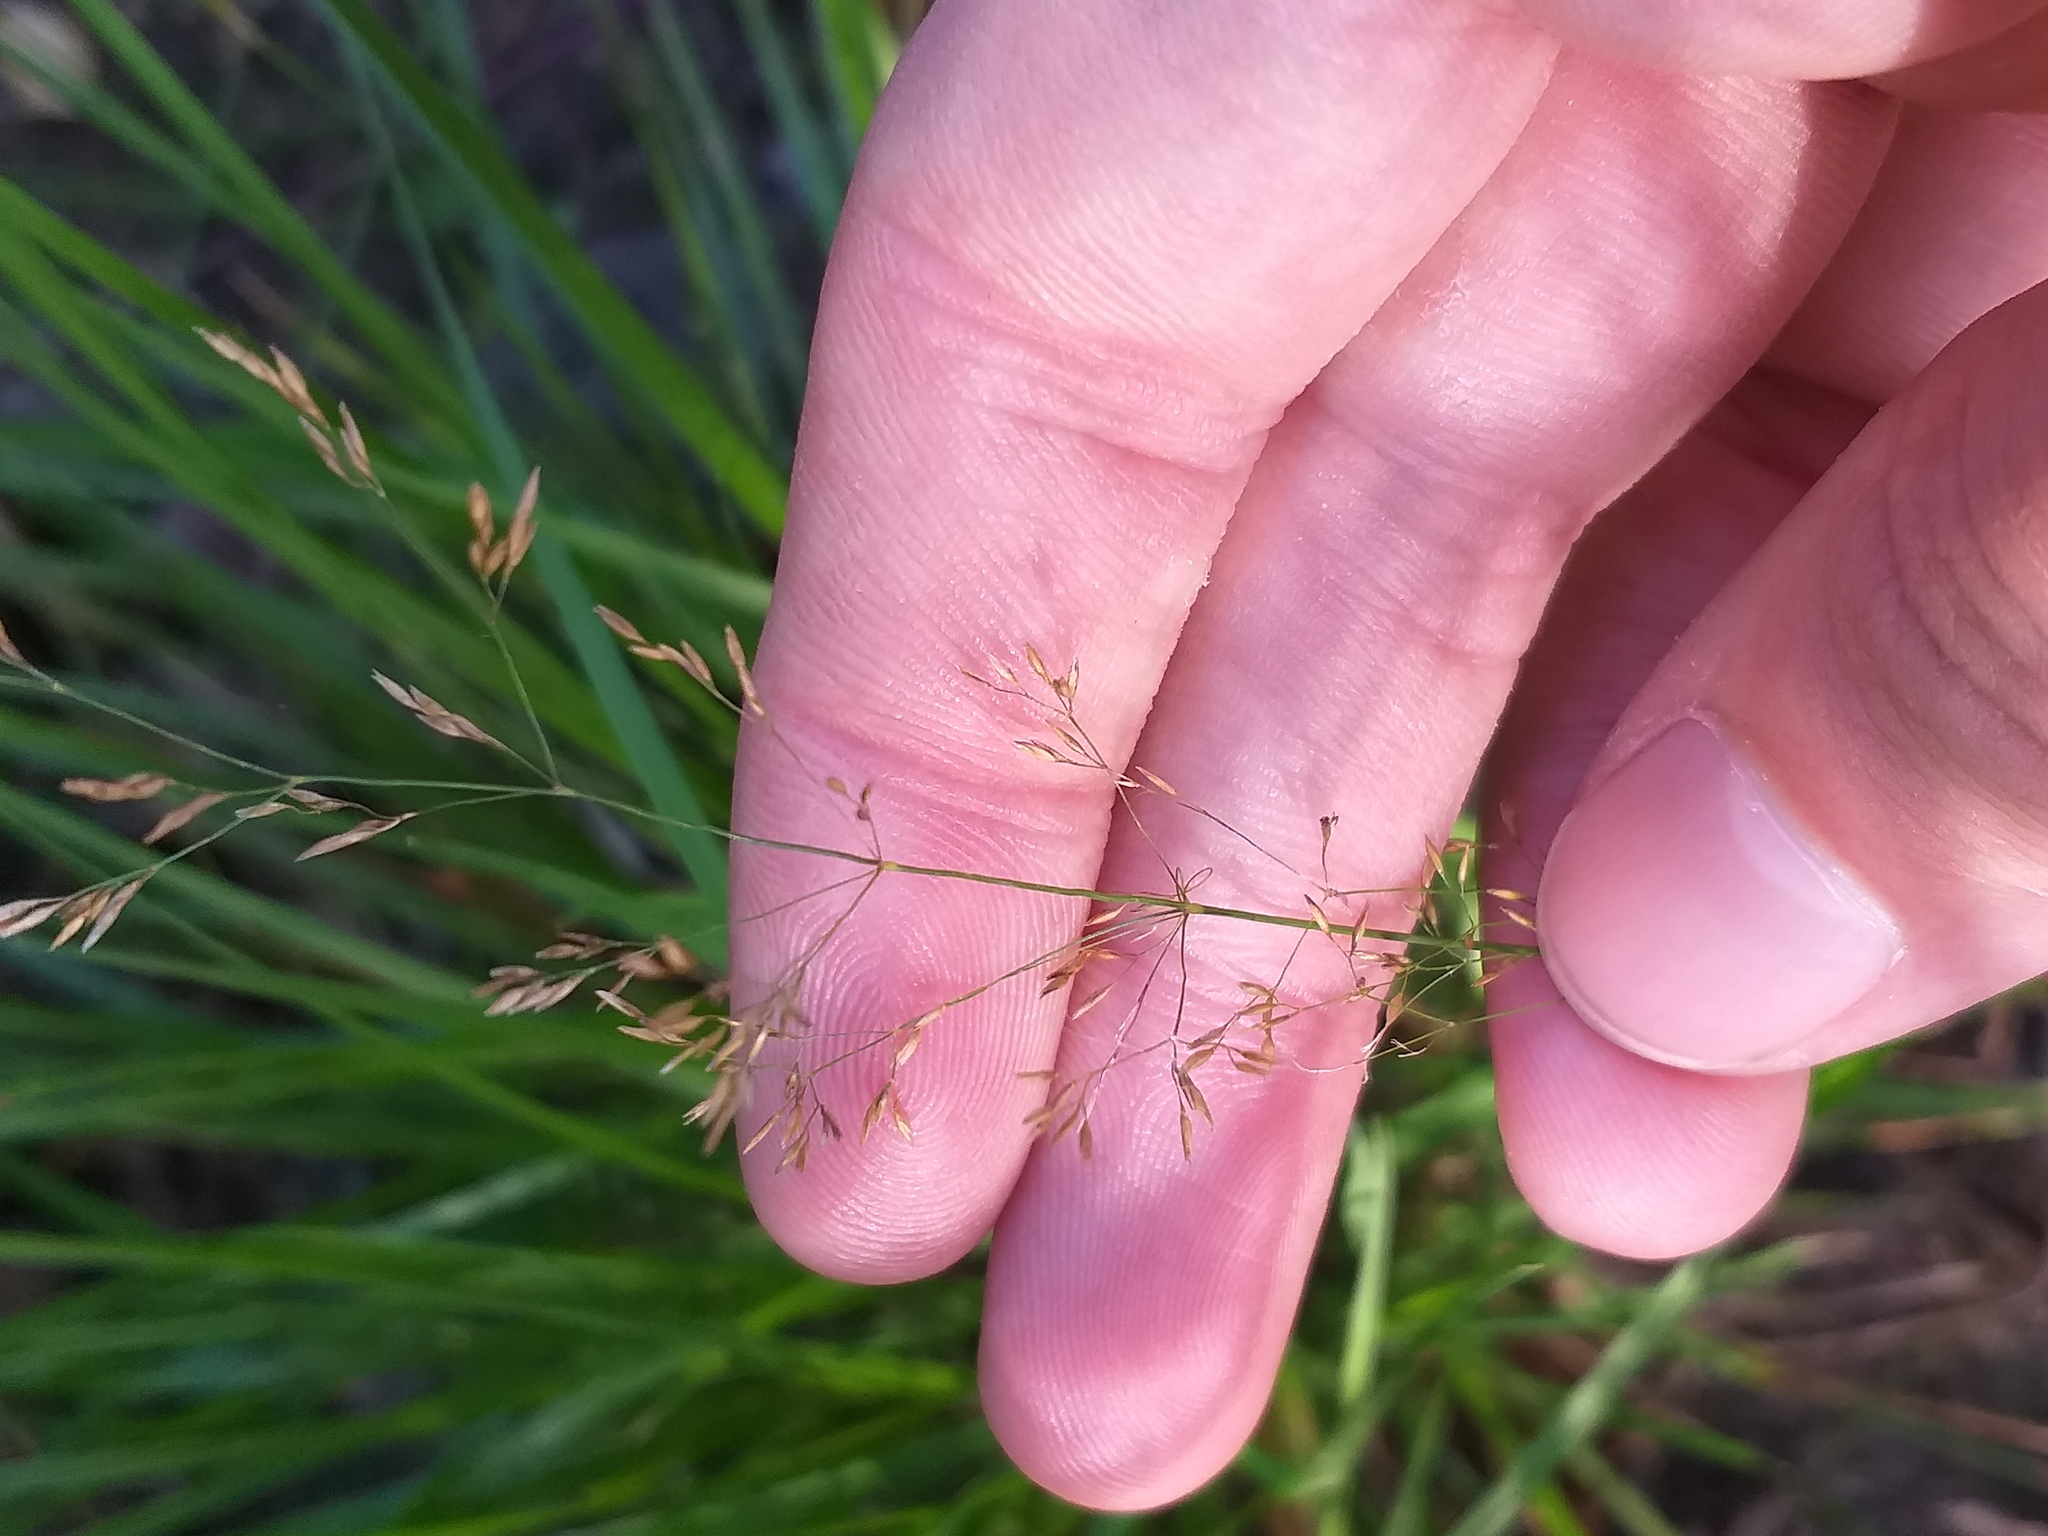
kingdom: Plantae
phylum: Tracheophyta
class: Liliopsida
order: Poales
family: Poaceae
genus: Agrostis
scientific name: Agrostis gigantea
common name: Black bent
